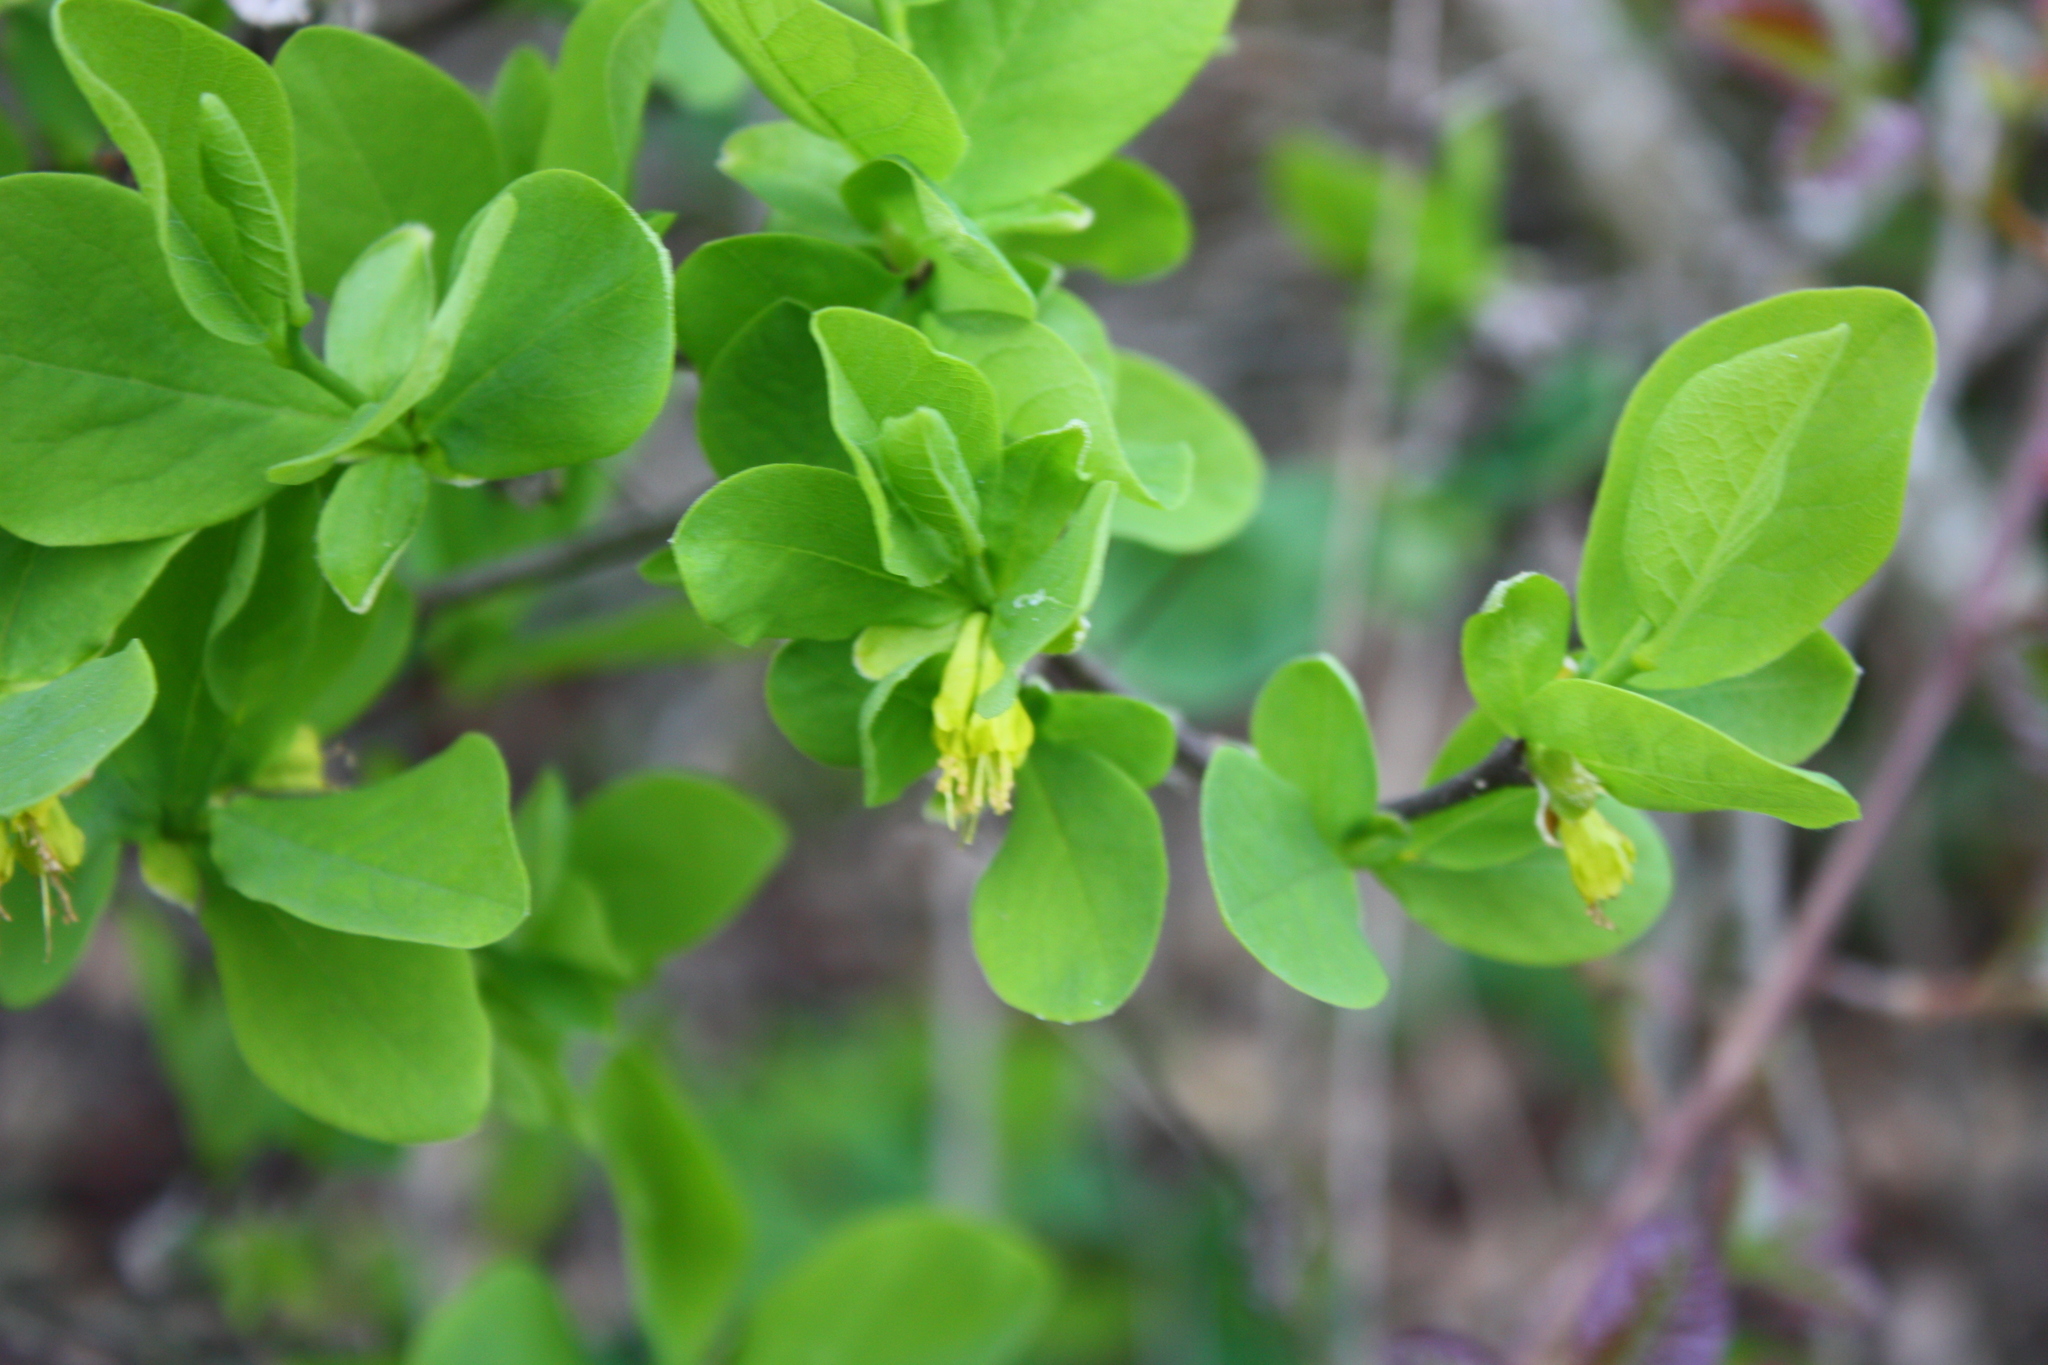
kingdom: Plantae
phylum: Tracheophyta
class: Magnoliopsida
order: Malvales
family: Thymelaeaceae
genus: Dirca
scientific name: Dirca occidentalis
